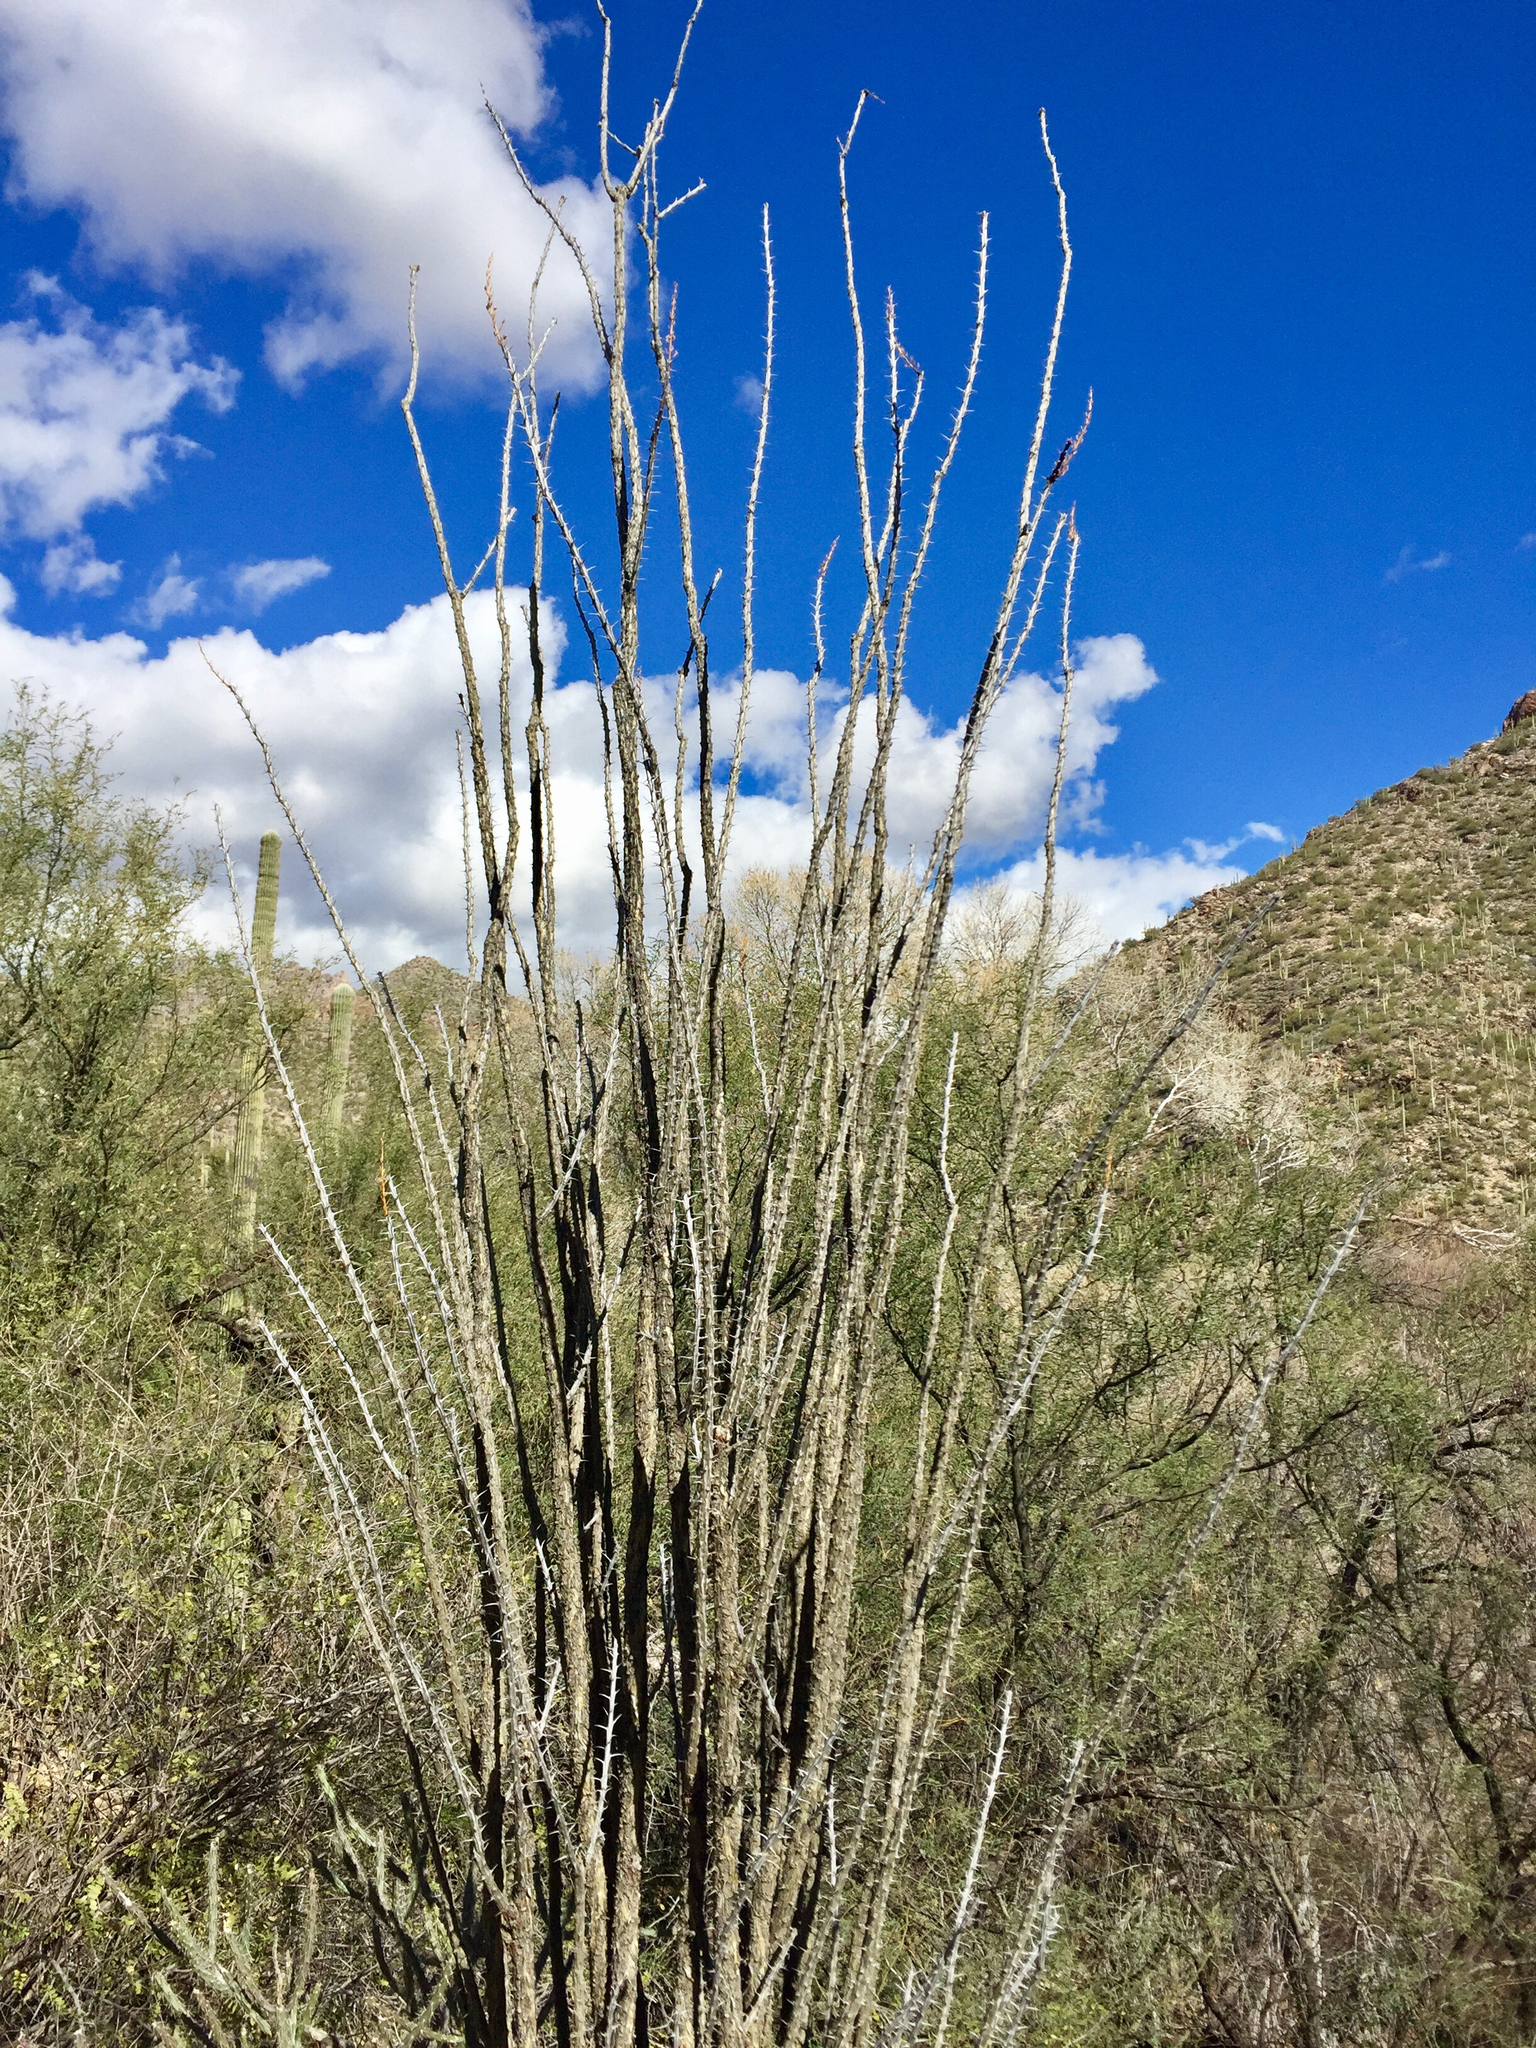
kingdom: Plantae
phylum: Tracheophyta
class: Magnoliopsida
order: Ericales
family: Fouquieriaceae
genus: Fouquieria
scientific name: Fouquieria splendens
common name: Vine-cactus
